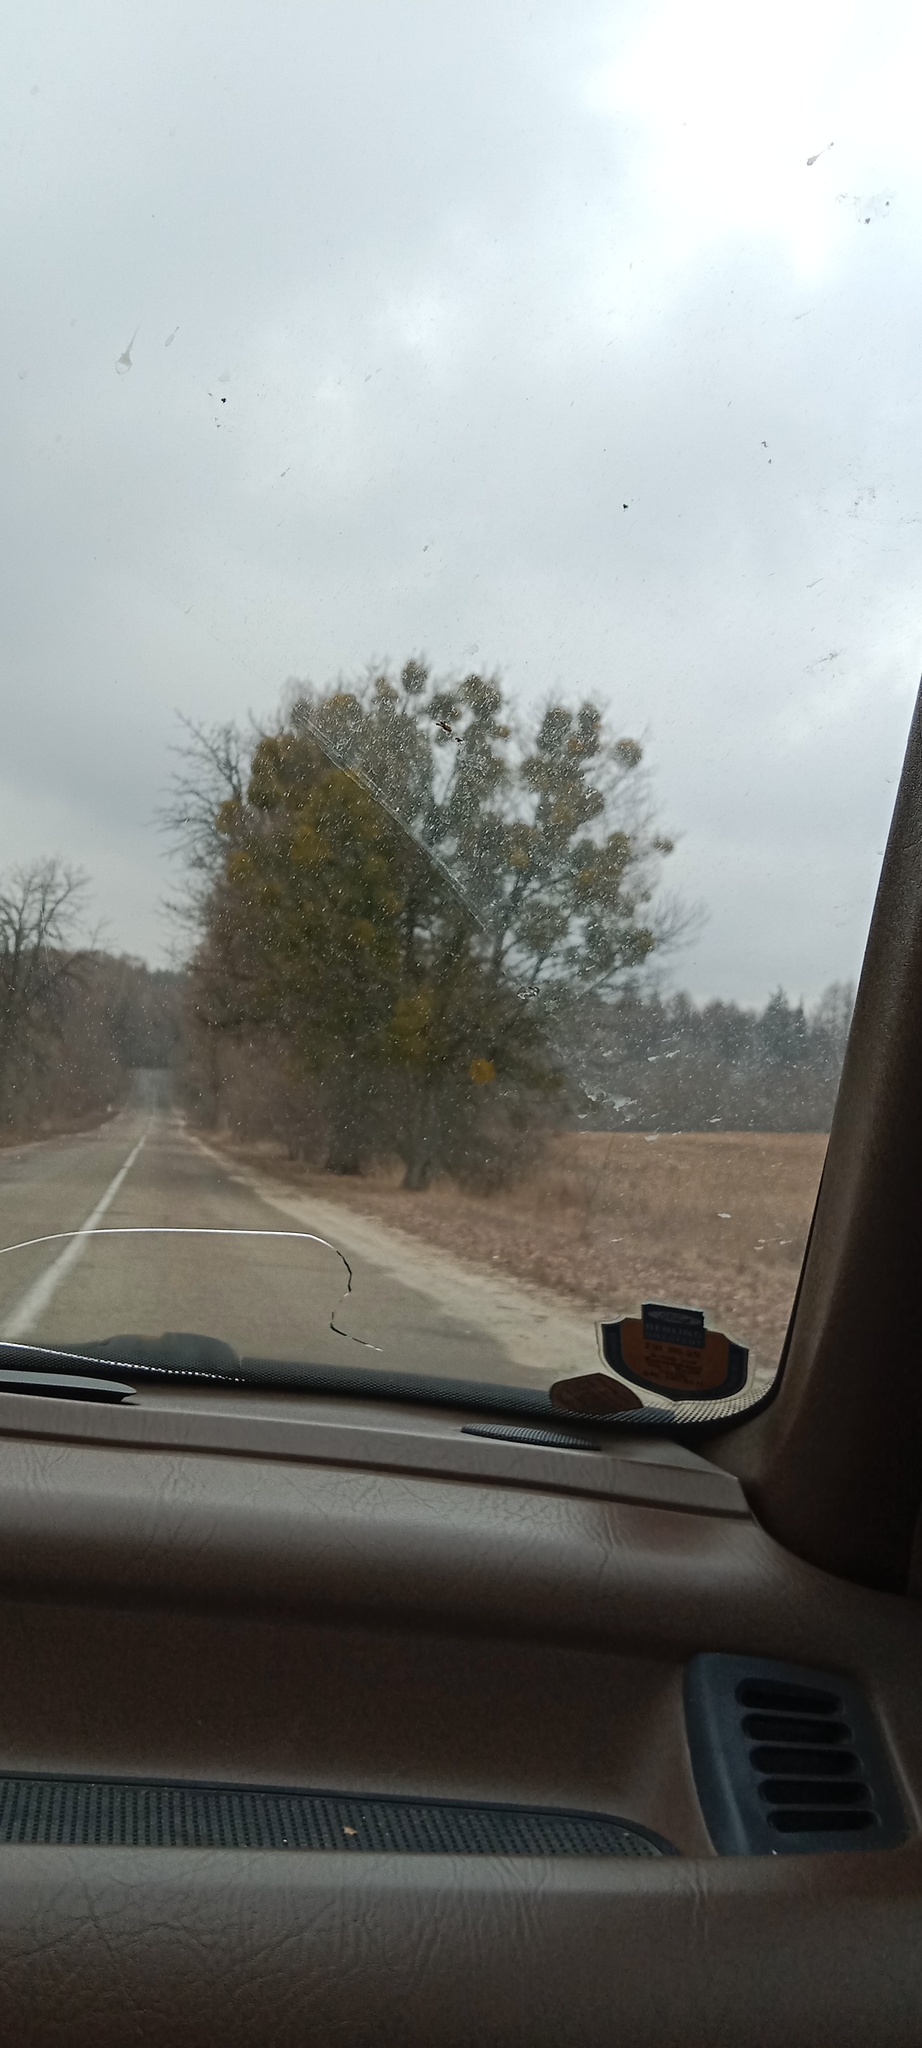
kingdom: Plantae
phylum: Tracheophyta
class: Magnoliopsida
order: Santalales
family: Viscaceae
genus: Viscum
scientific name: Viscum album
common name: Mistletoe
